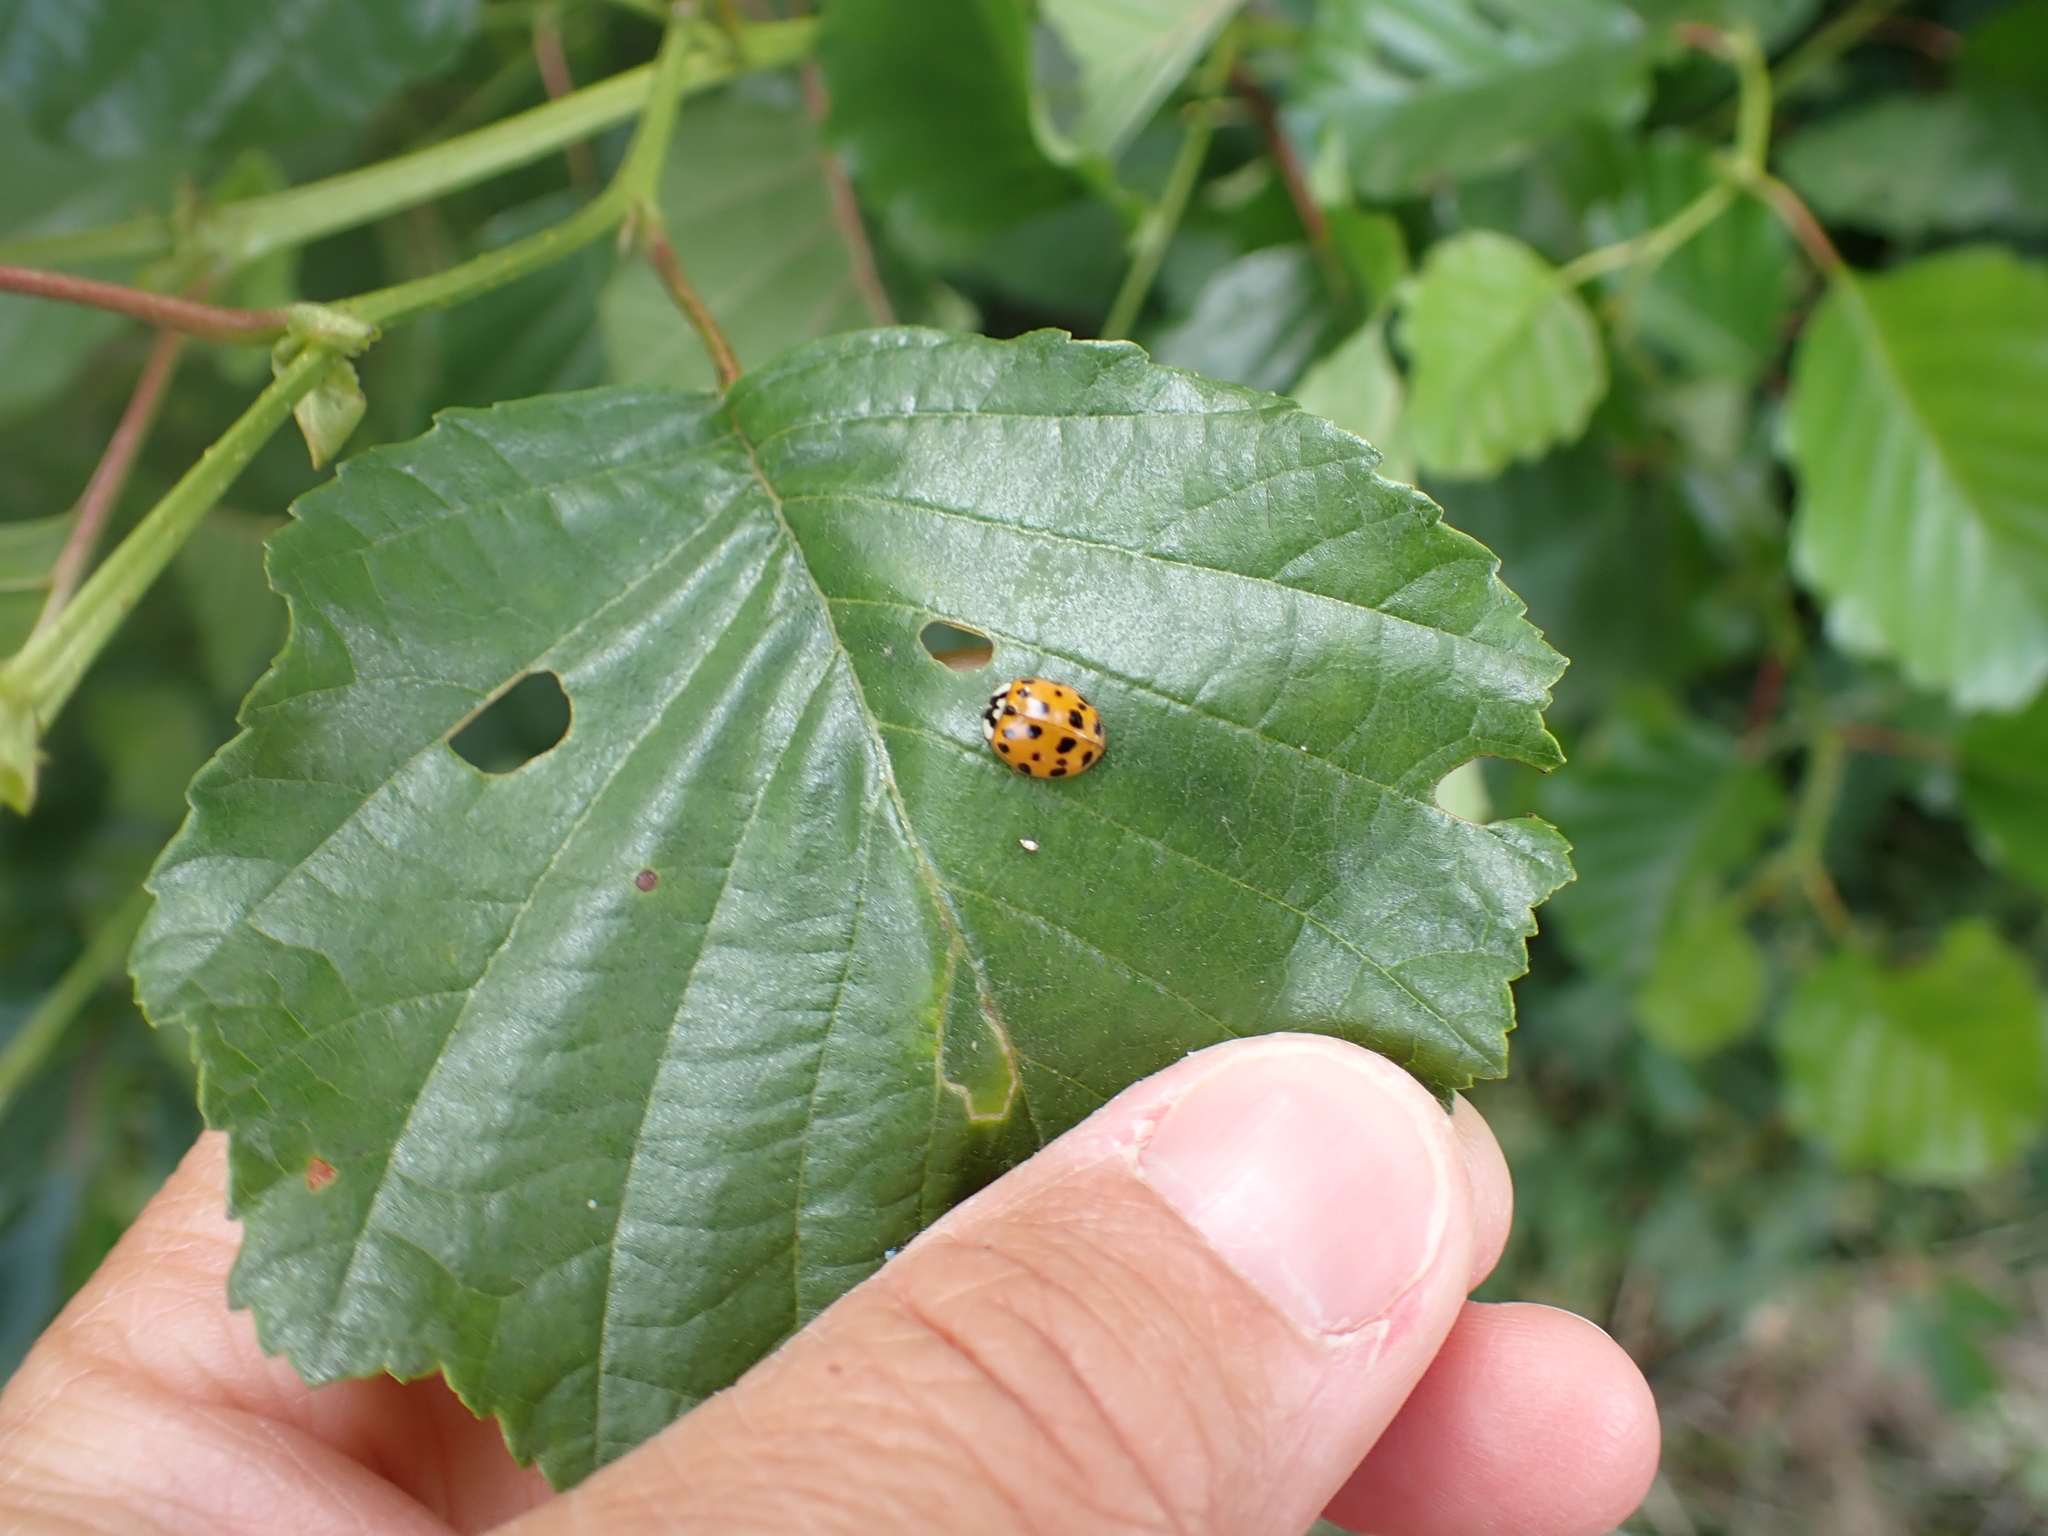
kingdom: Animalia
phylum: Arthropoda
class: Insecta
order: Coleoptera
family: Coccinellidae
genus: Harmonia
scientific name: Harmonia axyridis
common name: Harlequin ladybird
